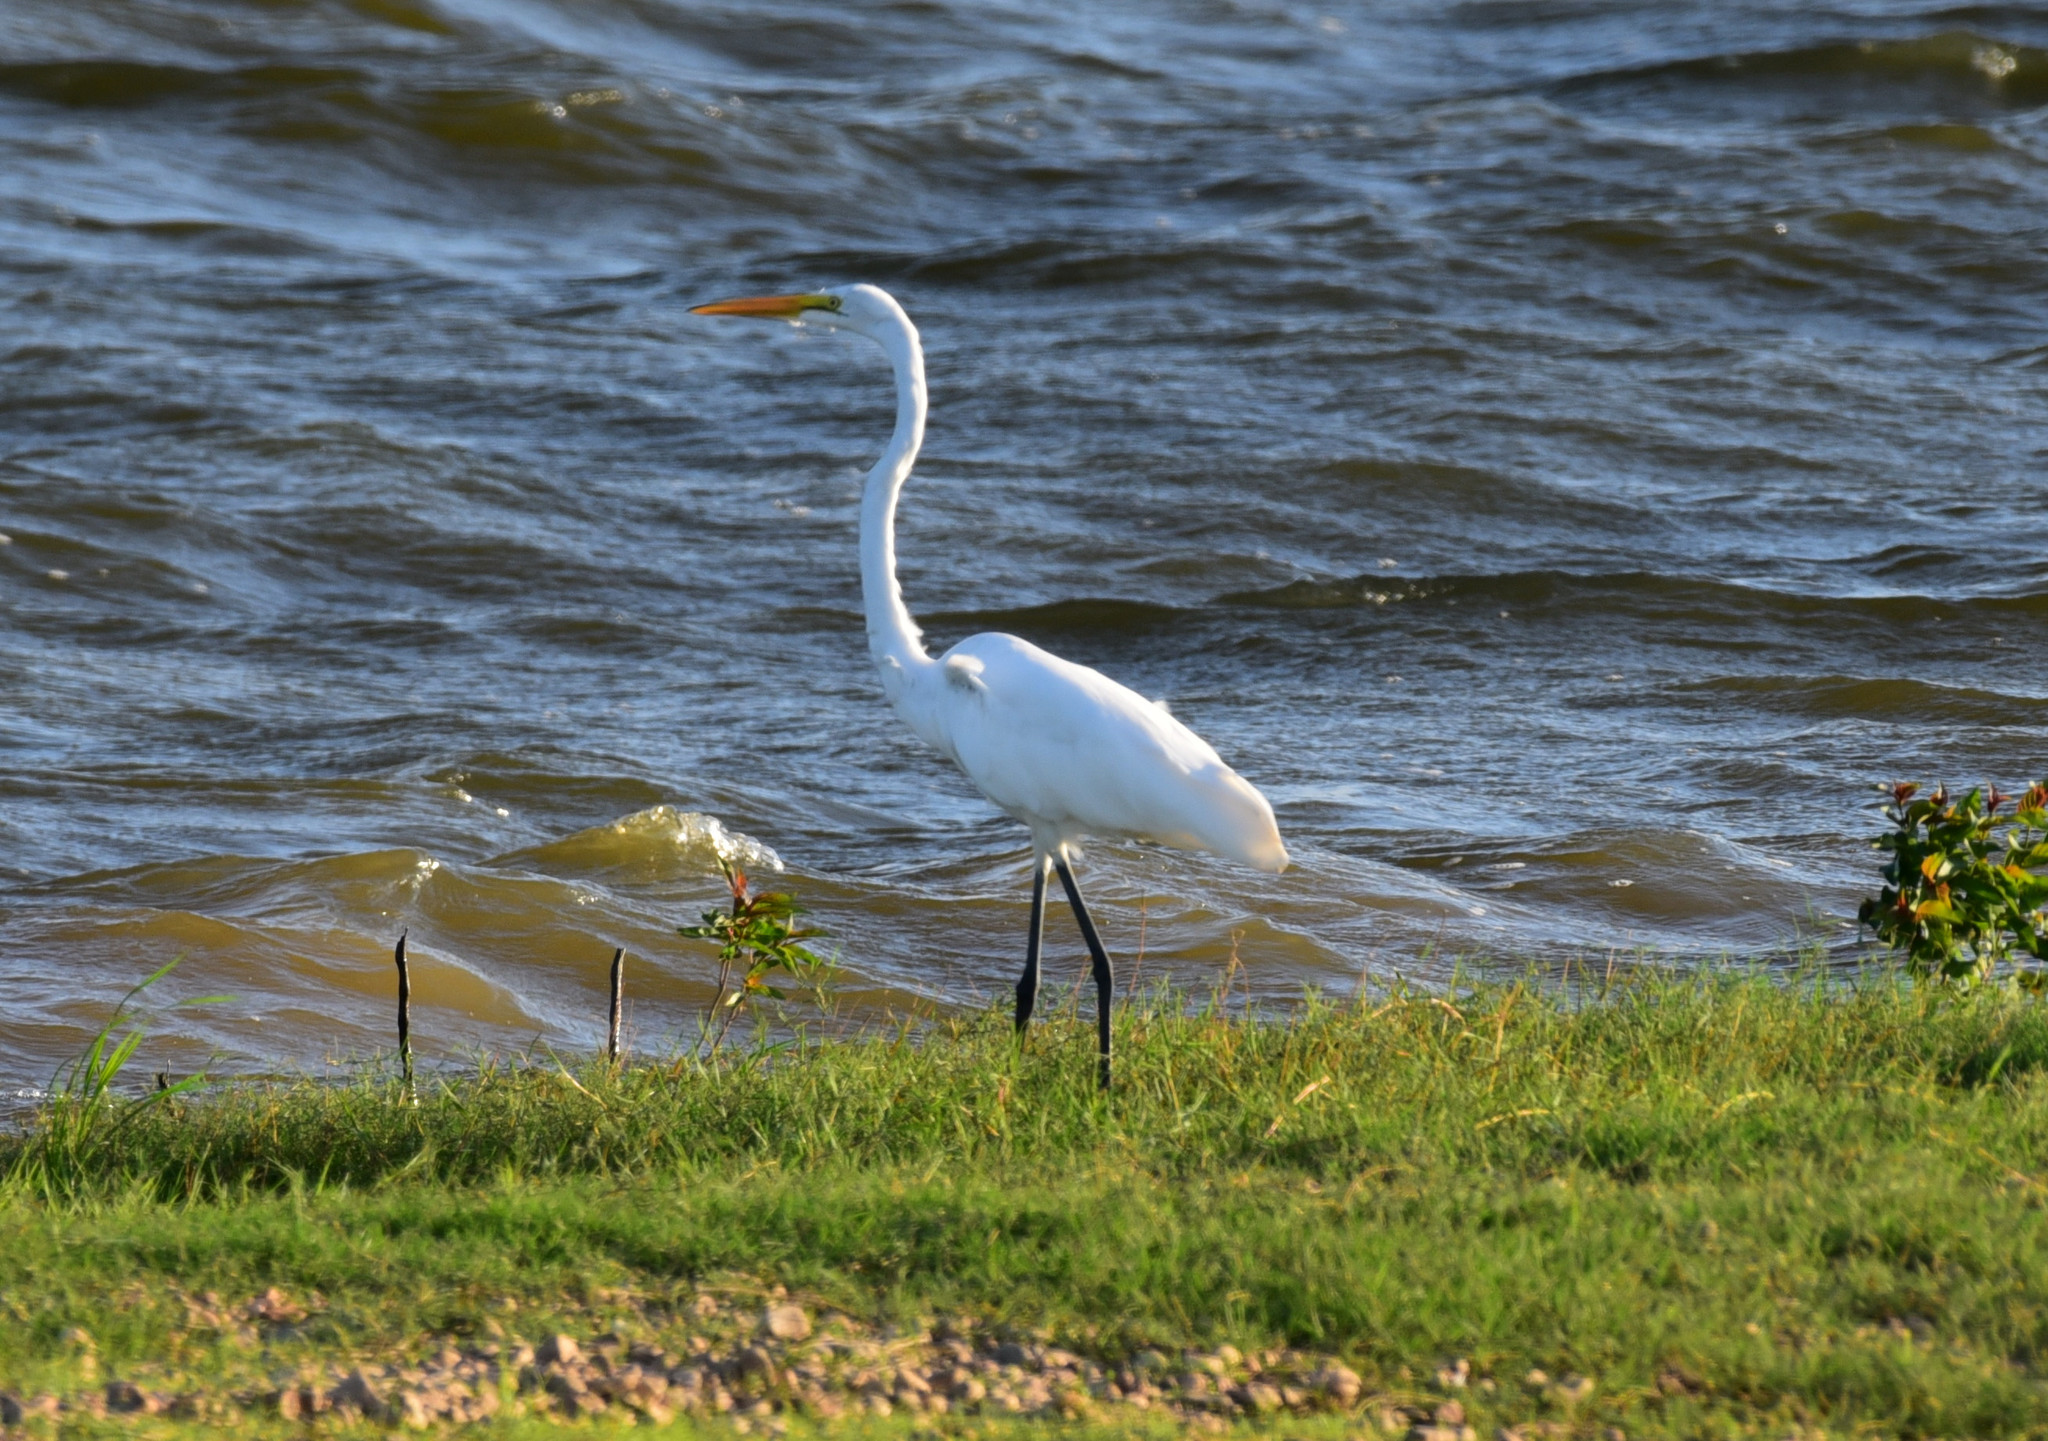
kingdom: Animalia
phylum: Chordata
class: Aves
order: Pelecaniformes
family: Ardeidae
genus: Ardea
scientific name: Ardea alba
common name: Great egret
